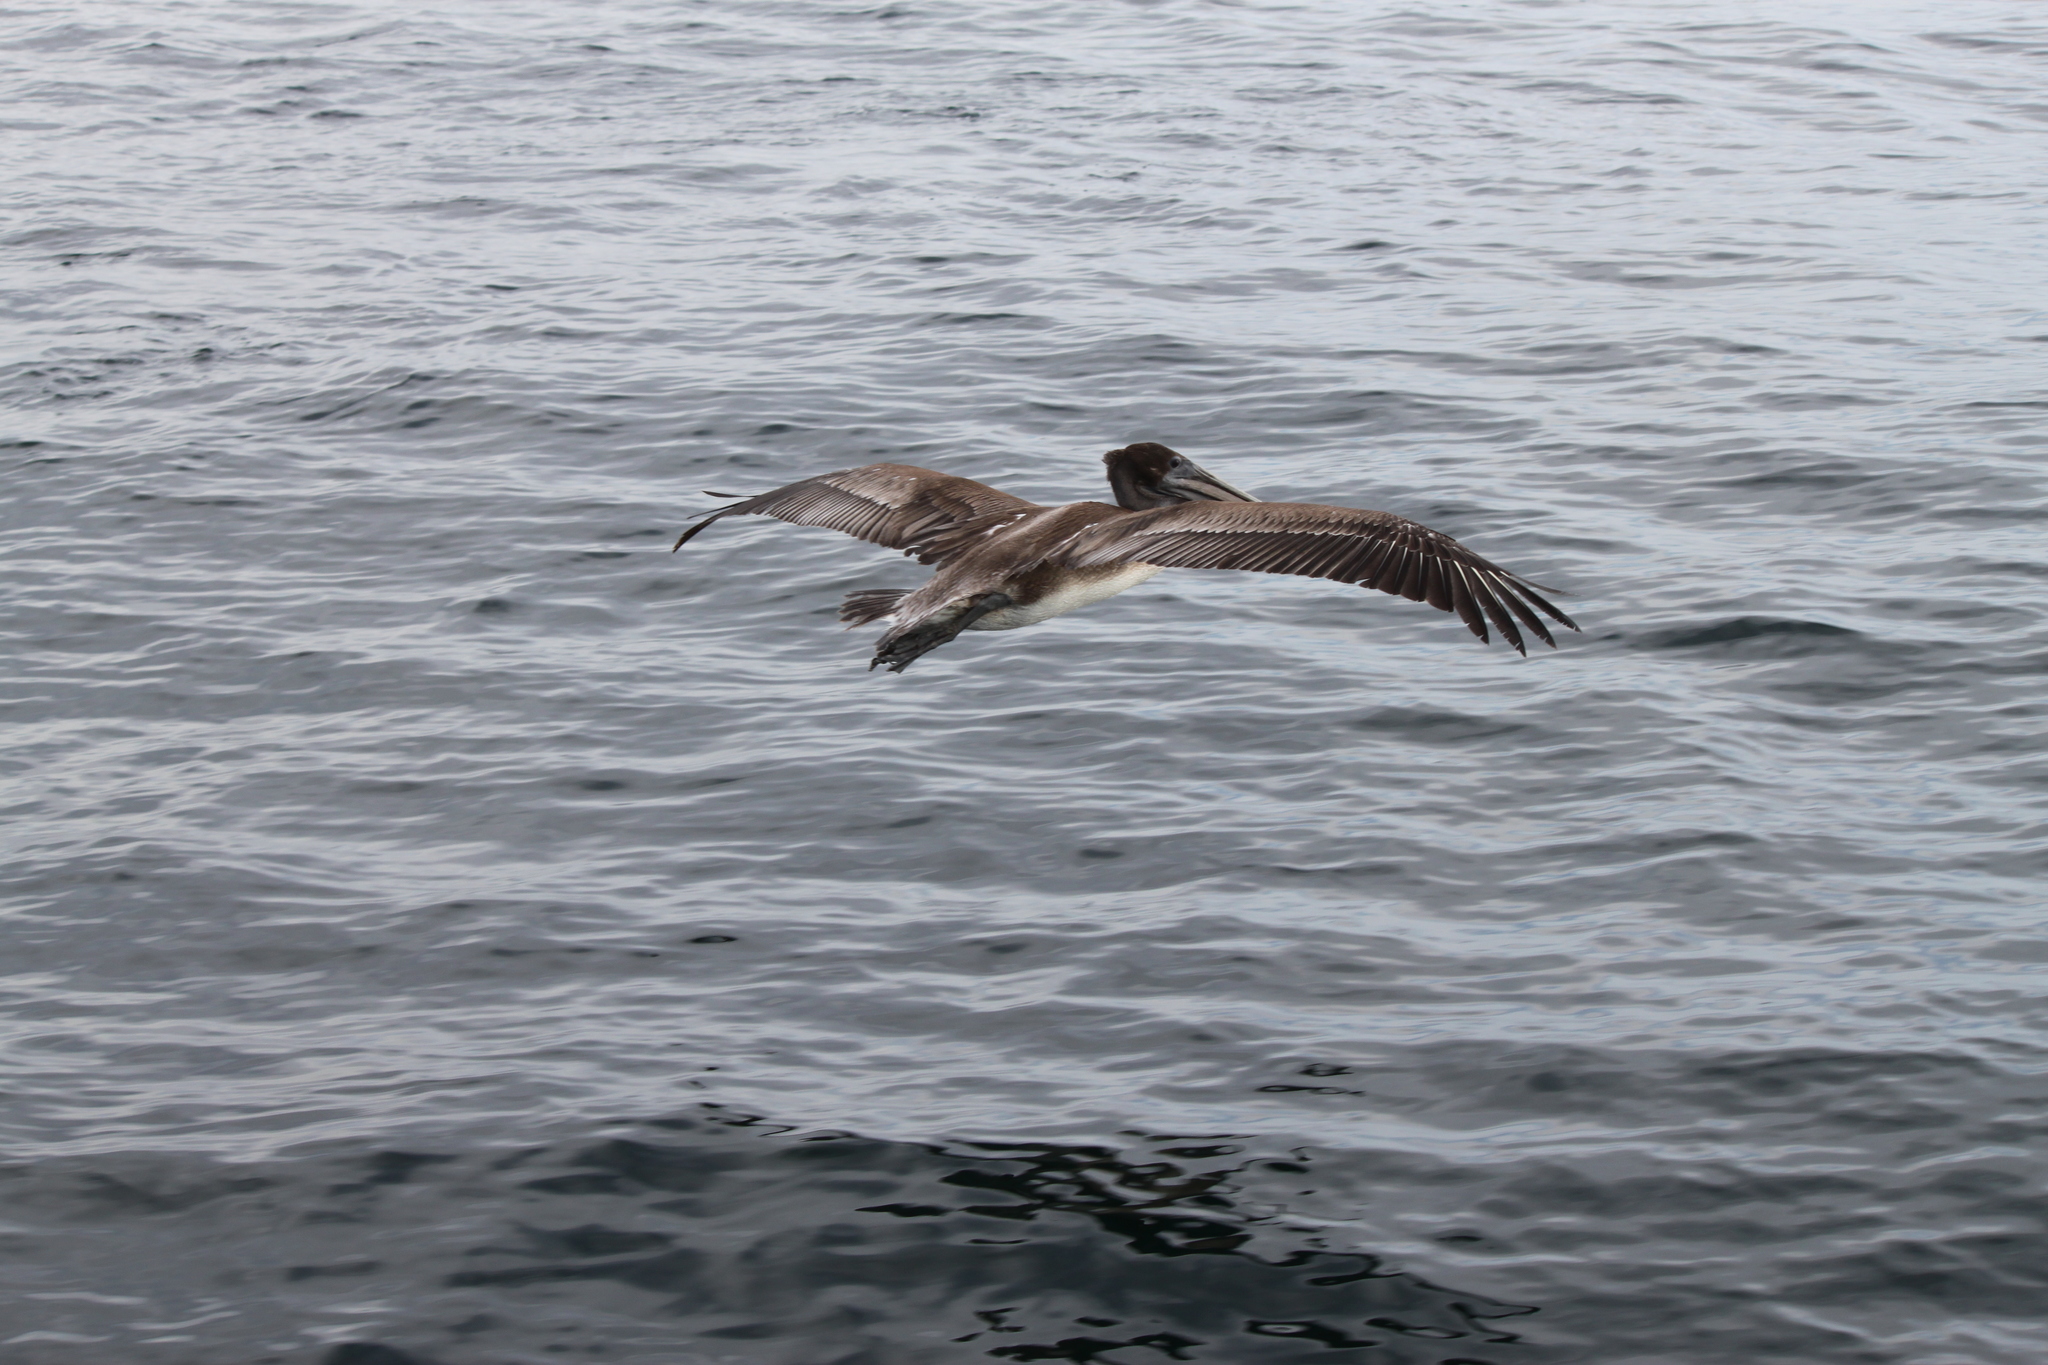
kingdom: Animalia
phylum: Chordata
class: Aves
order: Pelecaniformes
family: Pelecanidae
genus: Pelecanus
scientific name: Pelecanus occidentalis
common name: Brown pelican
